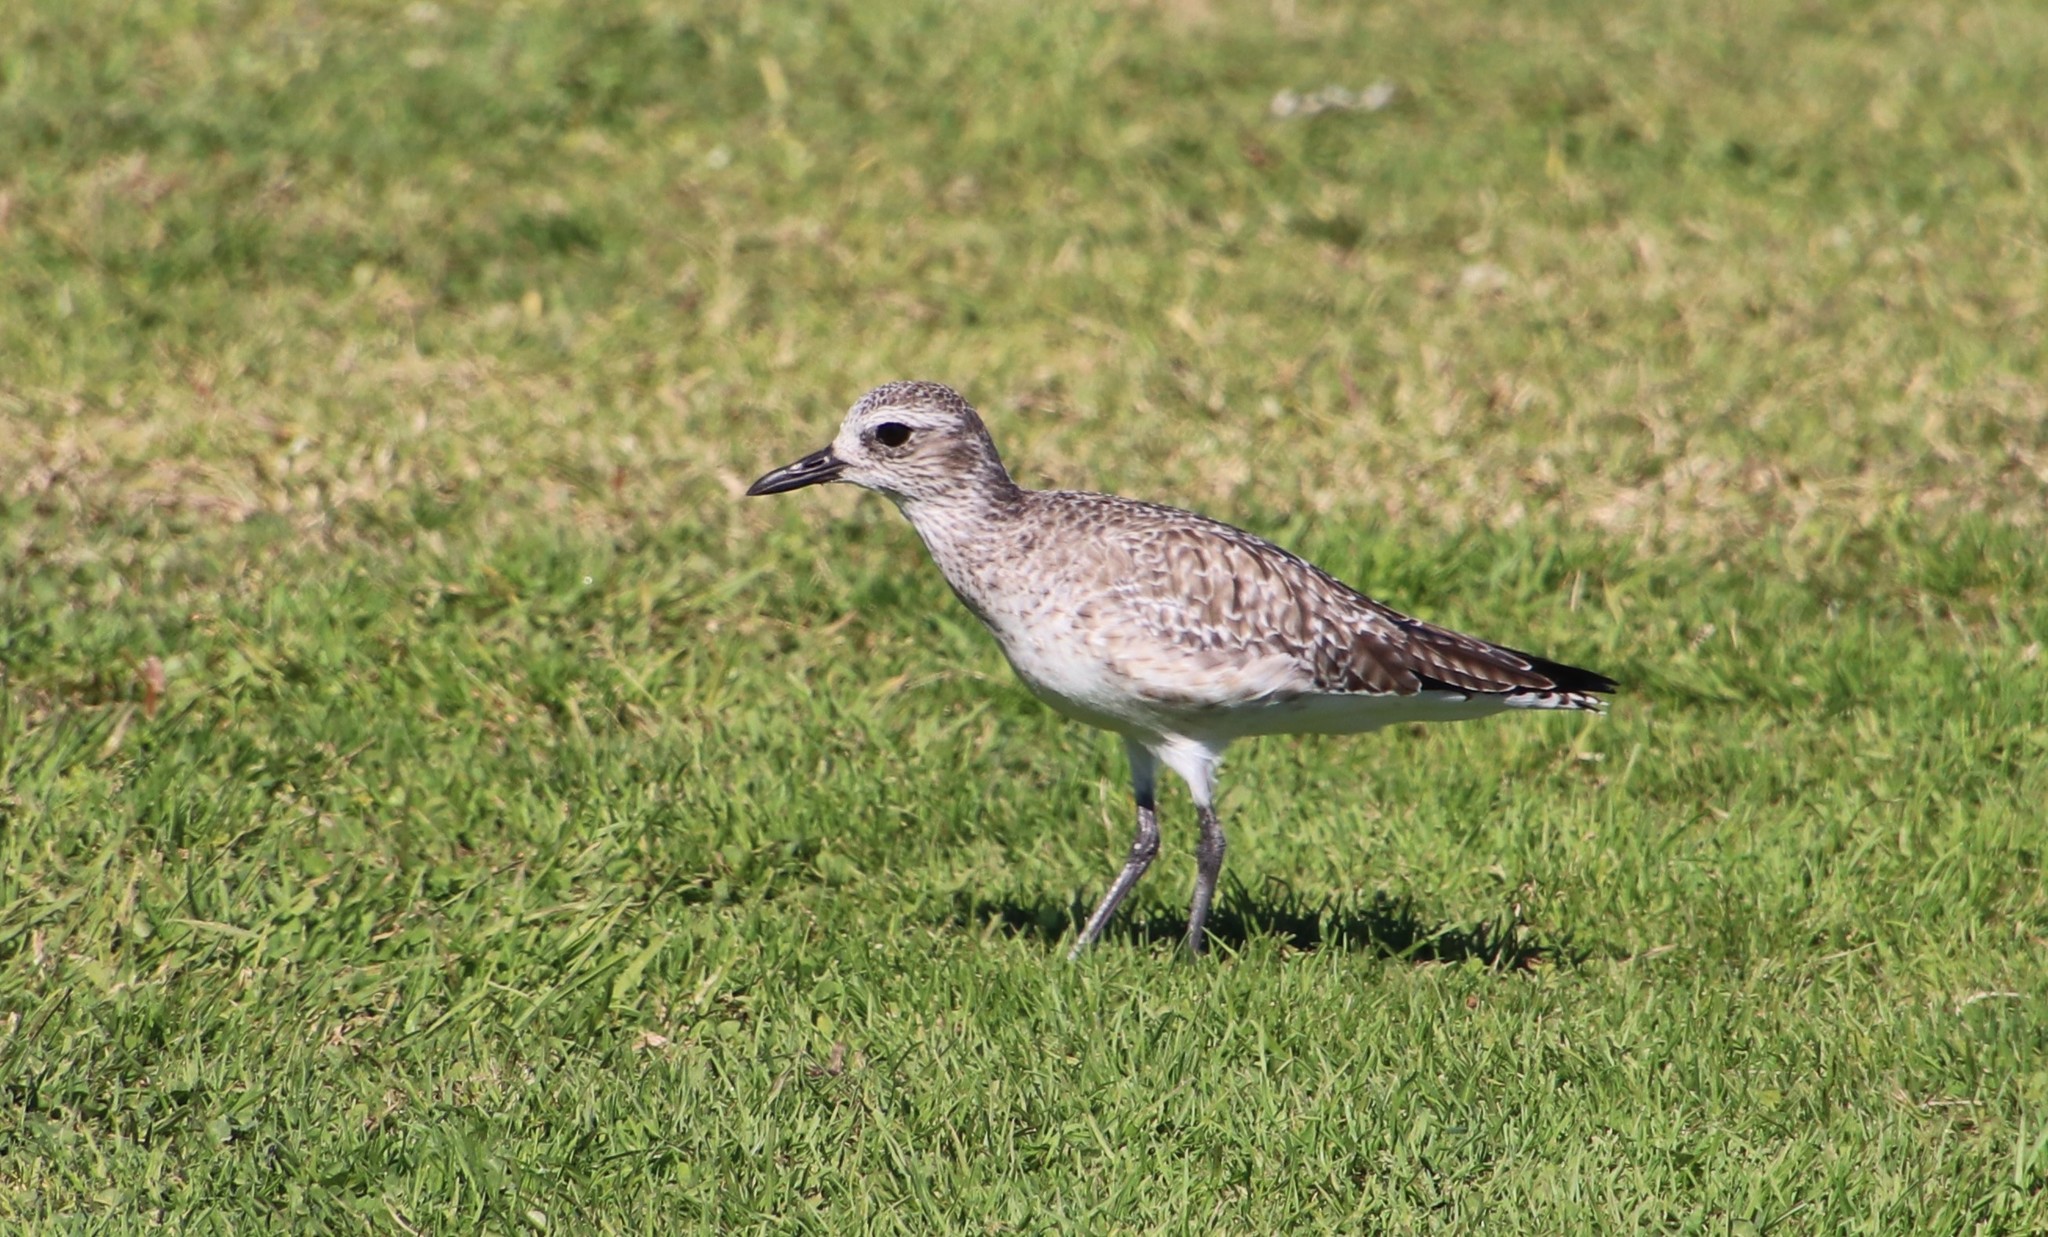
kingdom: Animalia
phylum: Chordata
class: Aves
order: Charadriiformes
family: Charadriidae
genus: Pluvialis
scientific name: Pluvialis squatarola
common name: Grey plover
